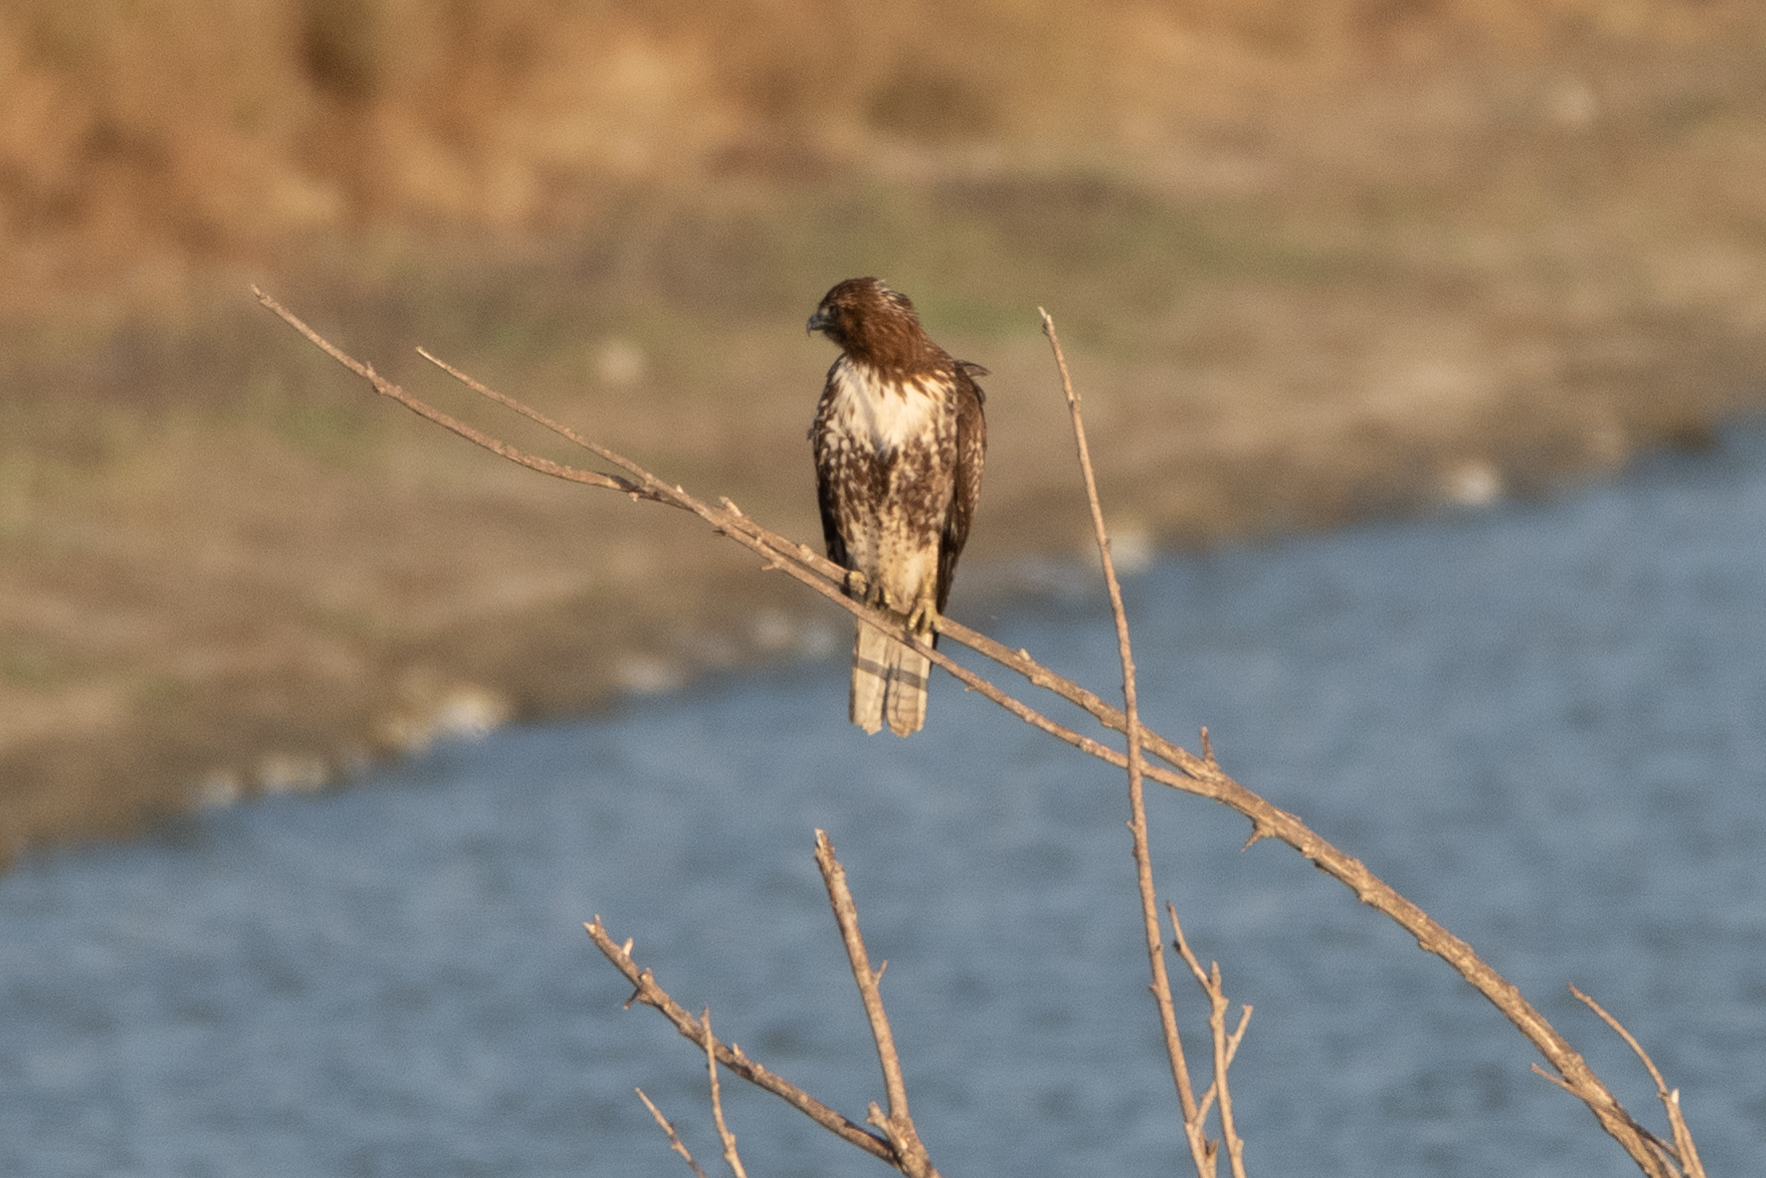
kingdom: Animalia
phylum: Chordata
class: Aves
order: Accipitriformes
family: Accipitridae
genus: Buteo
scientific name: Buteo jamaicensis
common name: Red-tailed hawk
